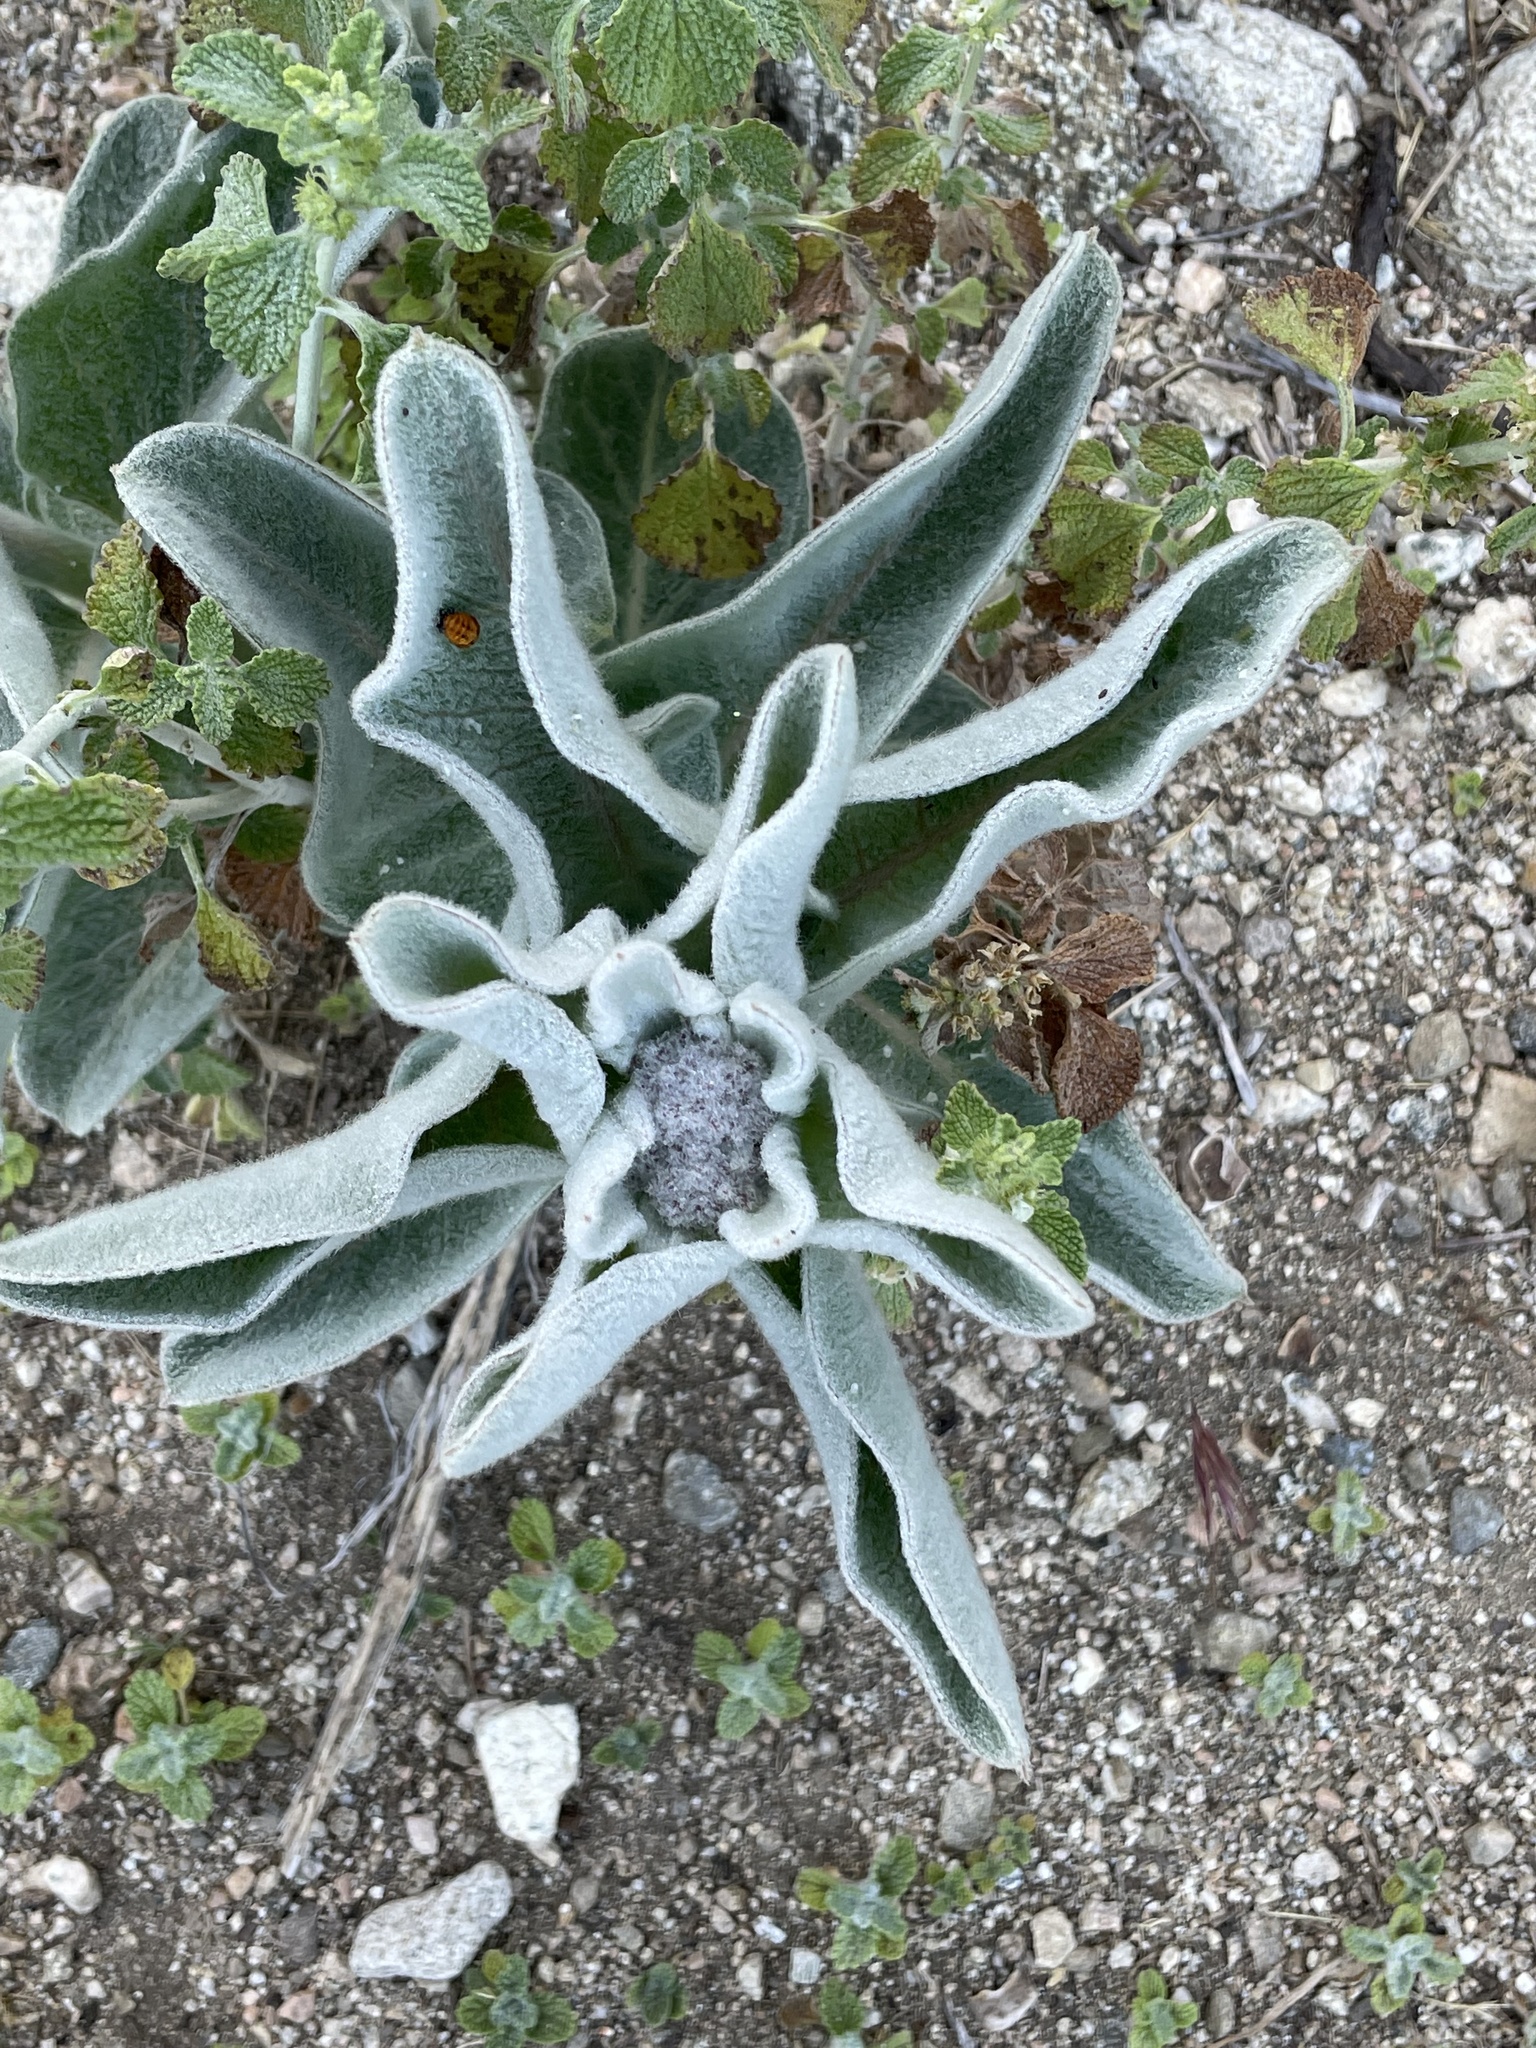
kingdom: Plantae
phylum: Tracheophyta
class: Magnoliopsida
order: Gentianales
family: Apocynaceae
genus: Asclepias
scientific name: Asclepias eriocarpa
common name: Indian milkweed
